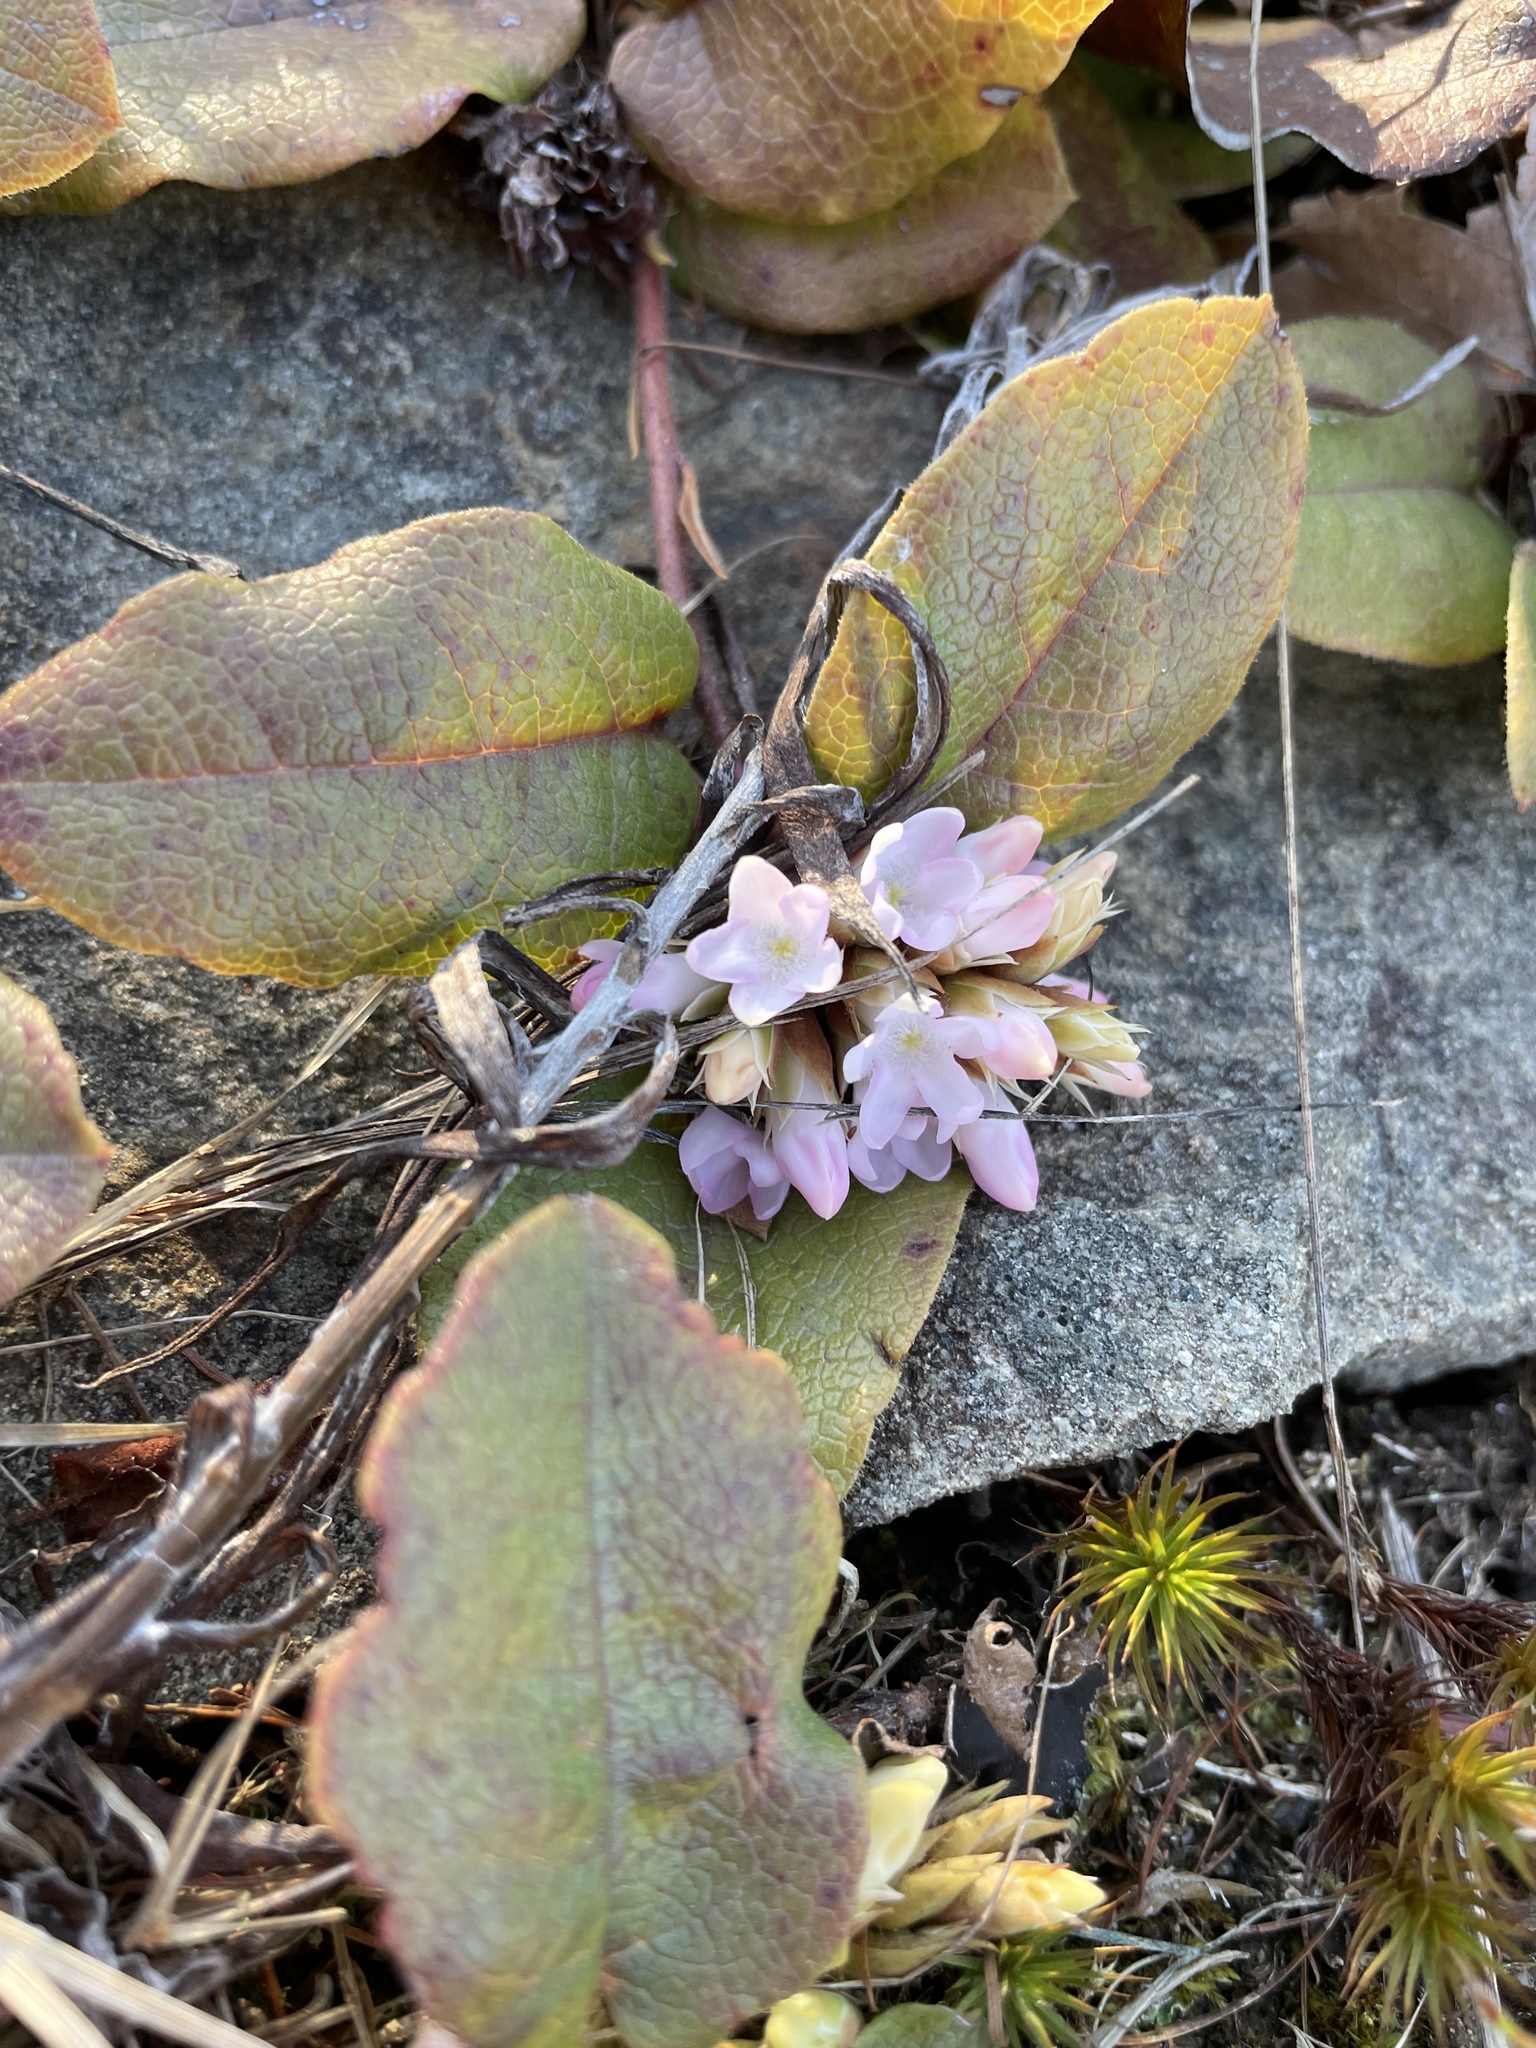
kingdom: Plantae
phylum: Tracheophyta
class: Magnoliopsida
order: Ericales
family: Ericaceae
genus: Epigaea
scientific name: Epigaea repens
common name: Gravelroot
